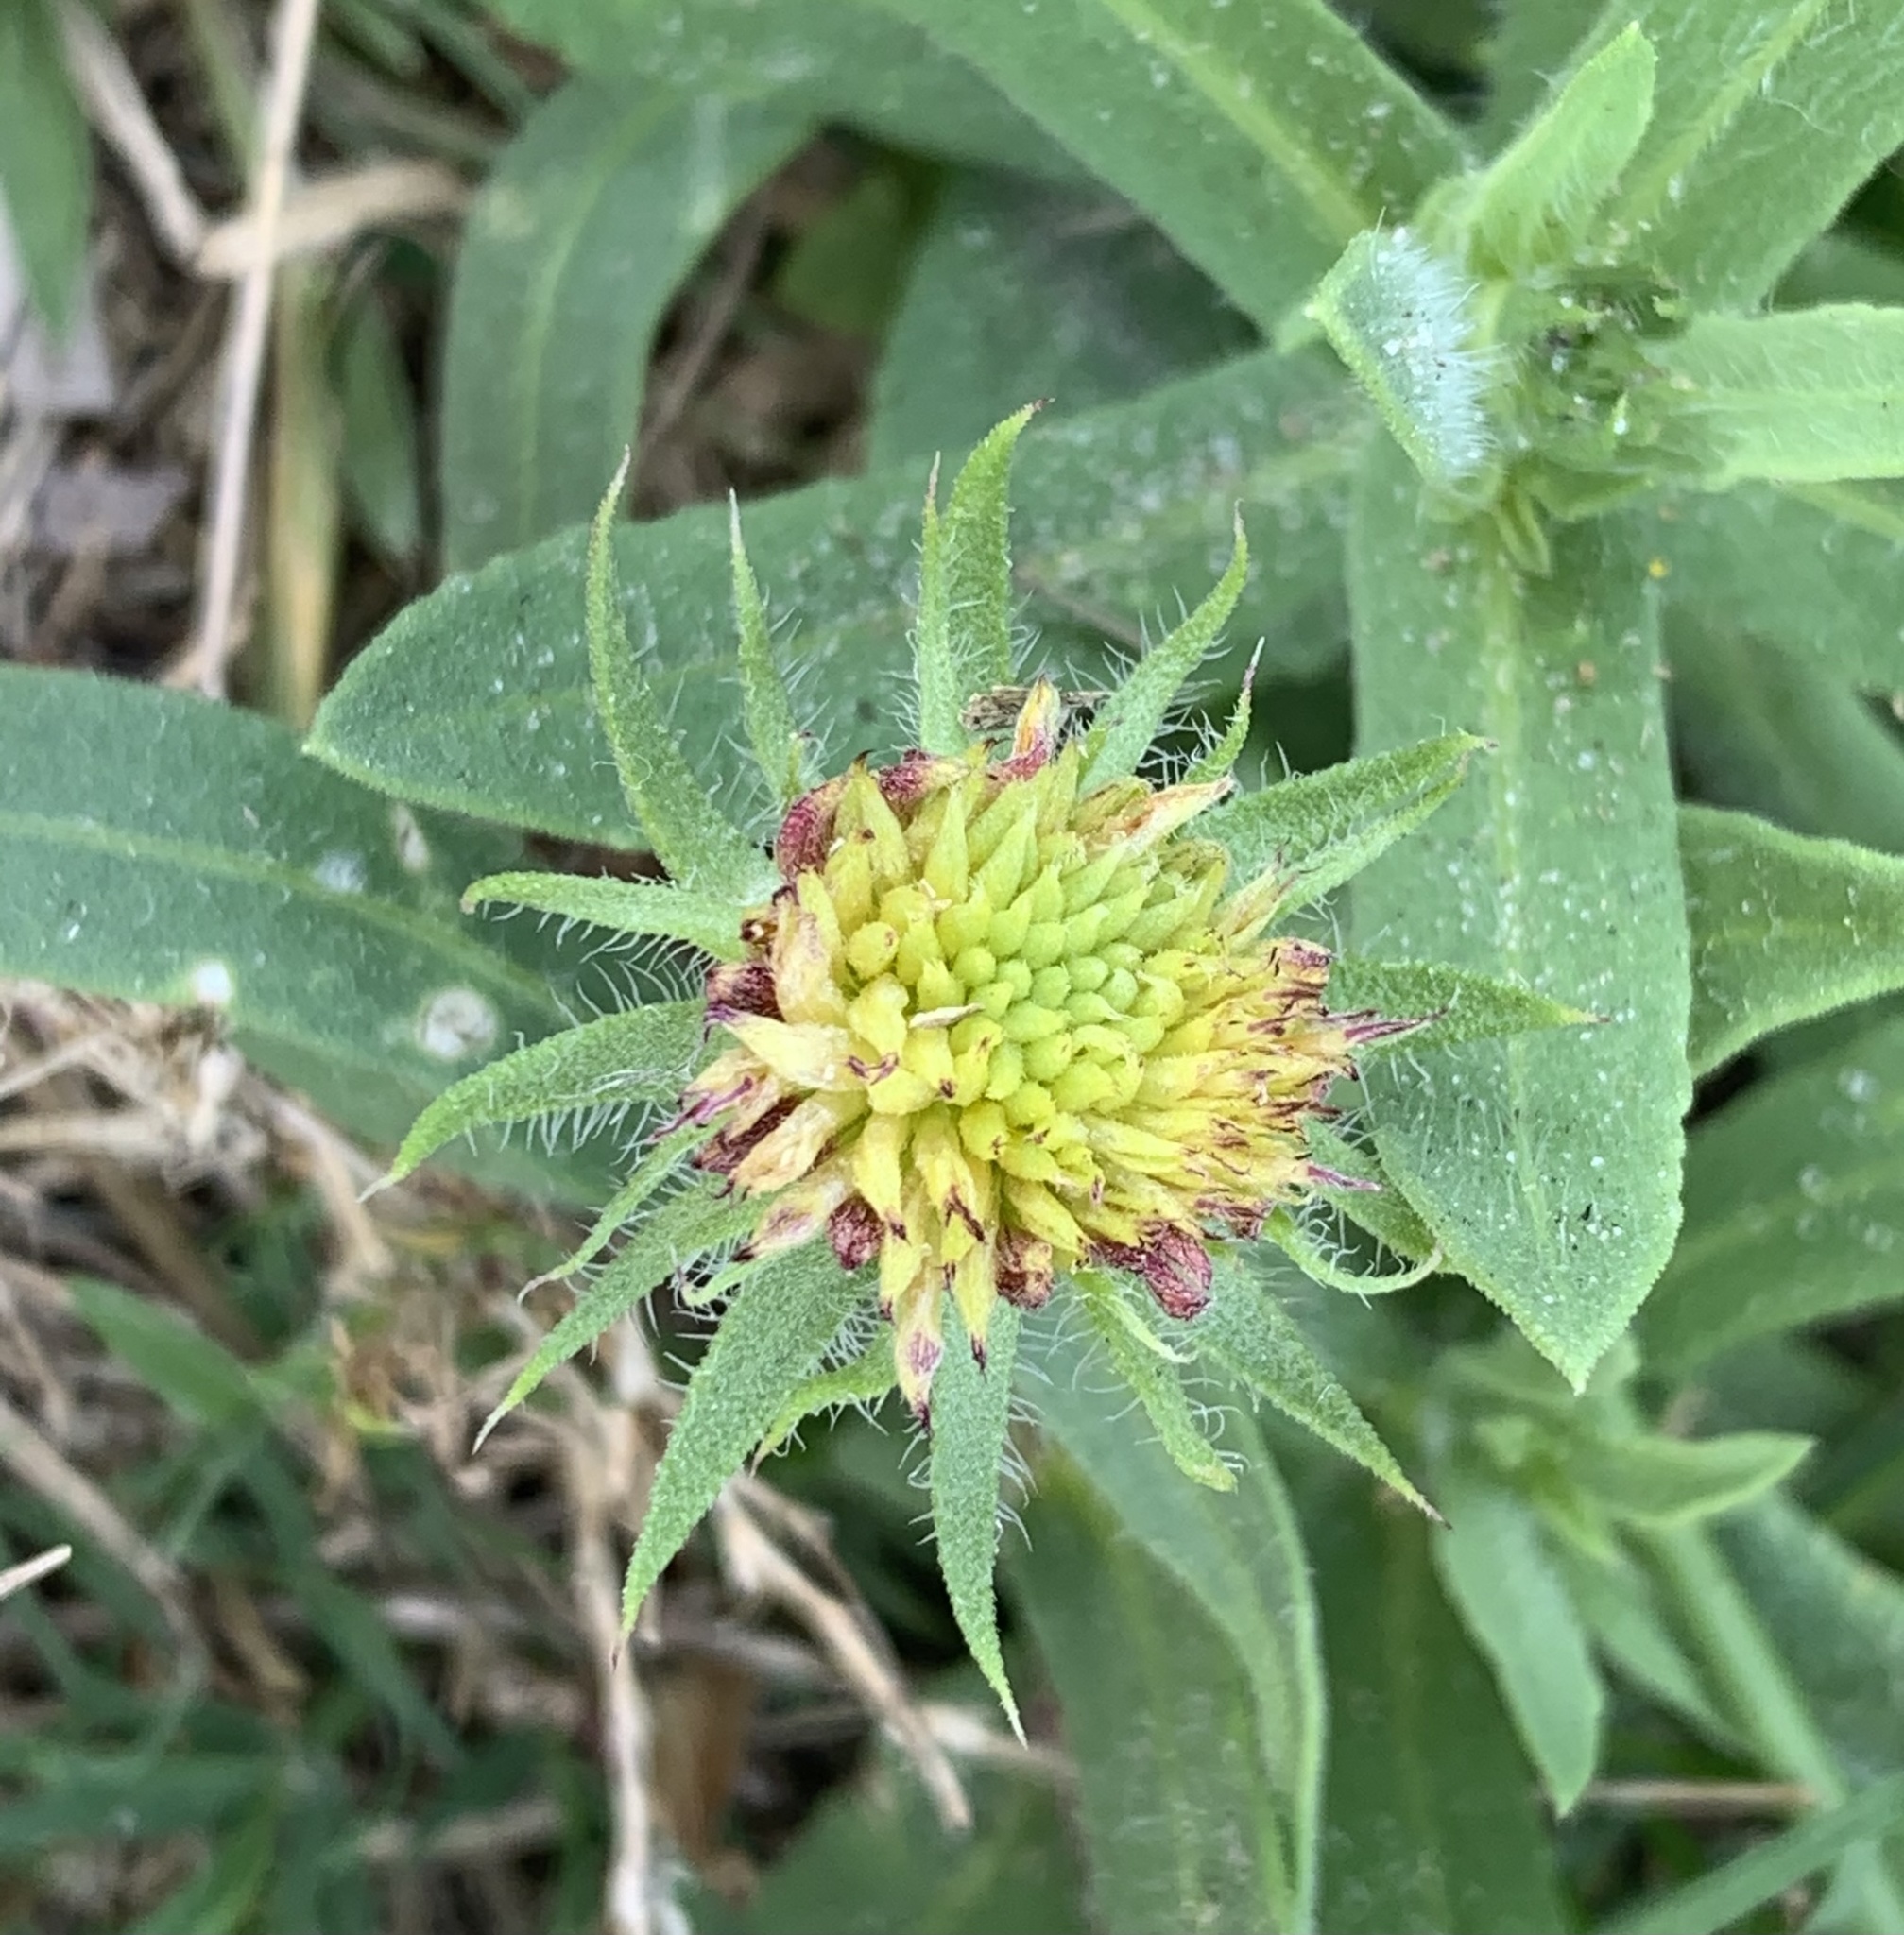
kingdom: Plantae
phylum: Tracheophyta
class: Magnoliopsida
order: Asterales
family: Asteraceae
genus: Gaillardia
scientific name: Gaillardia pulchella
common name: Firewheel
